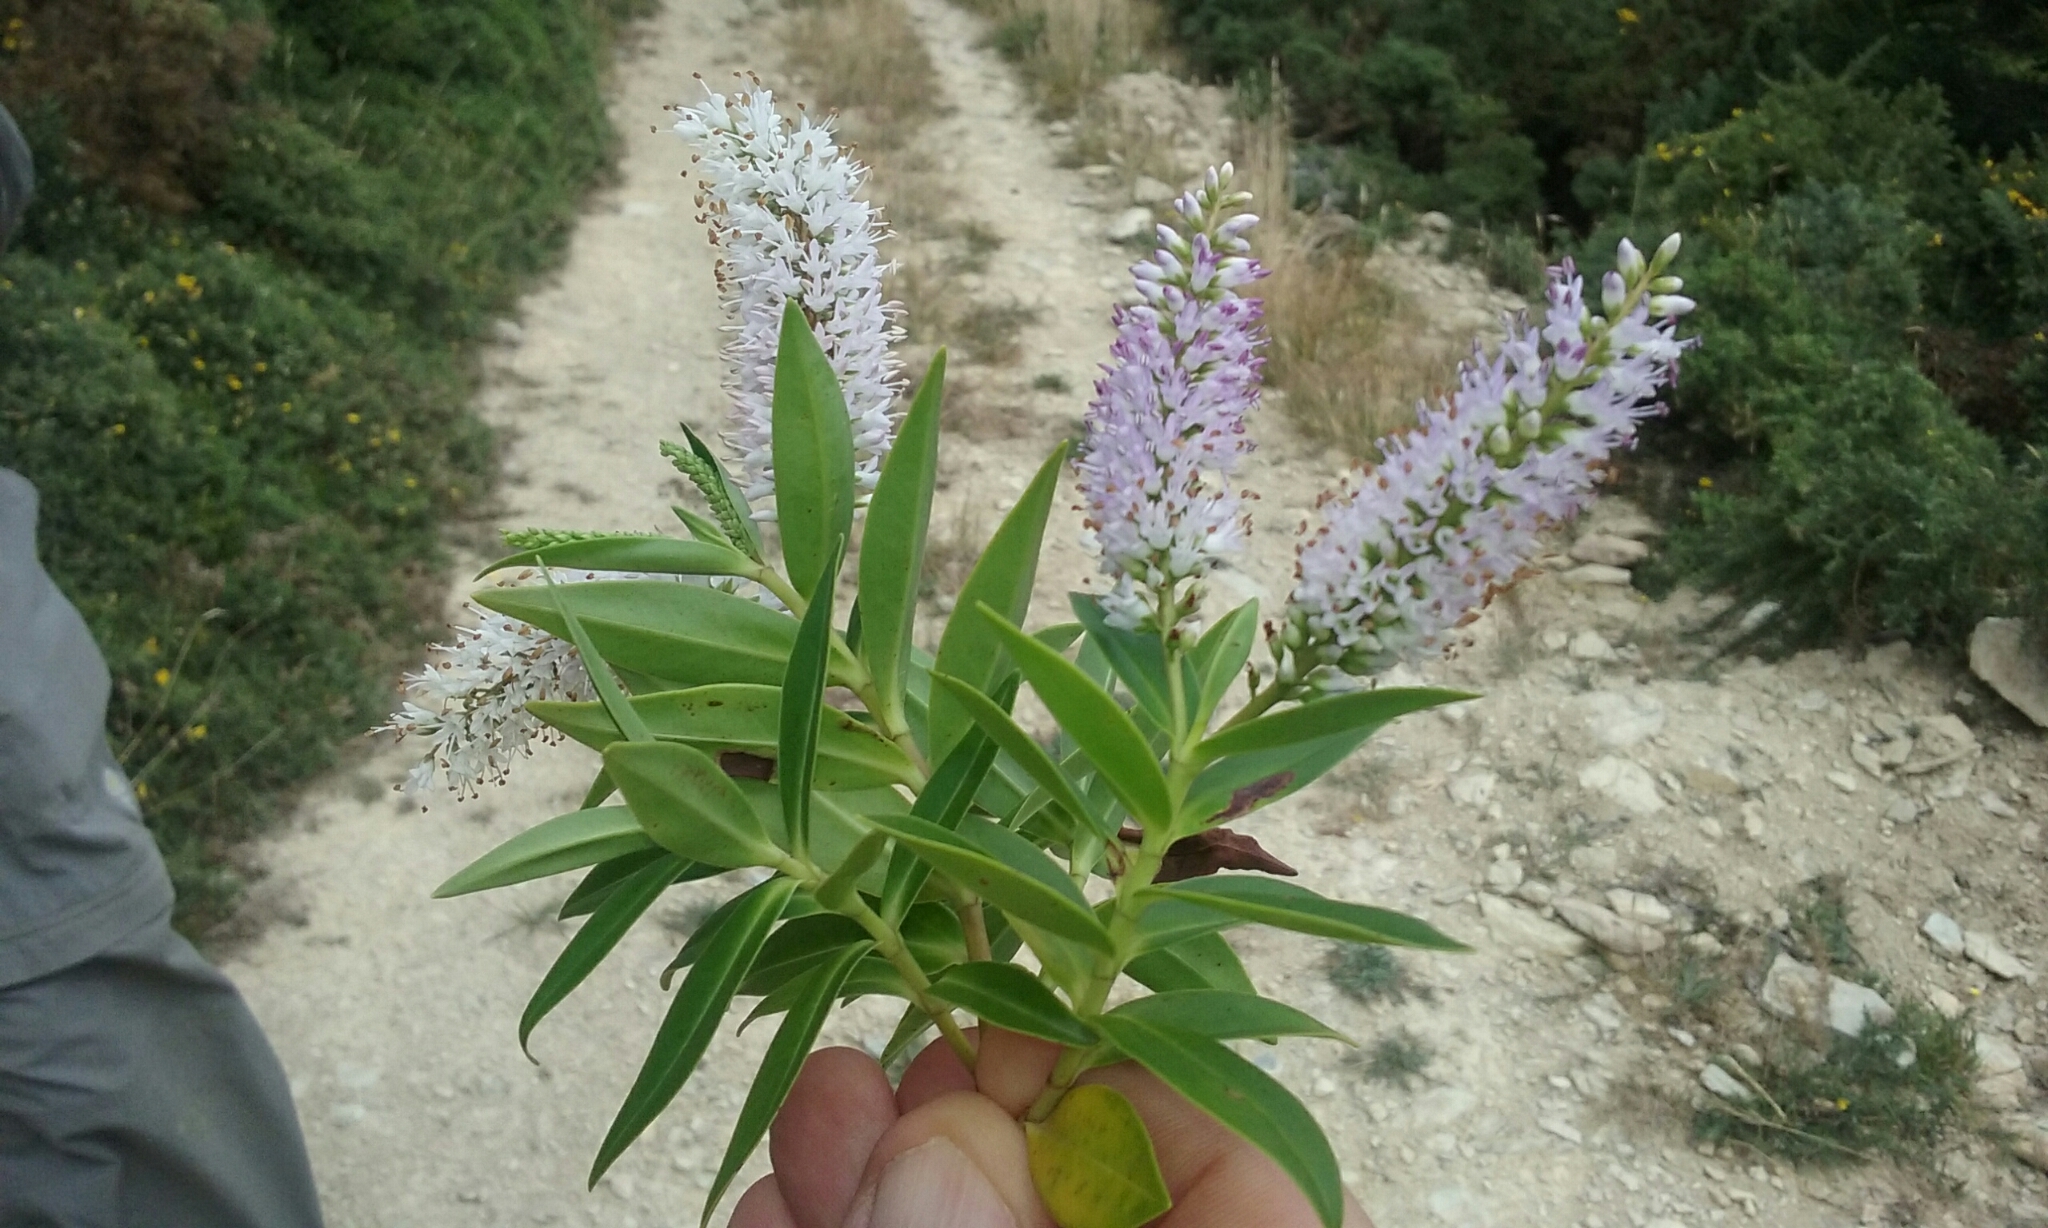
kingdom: Plantae
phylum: Tracheophyta
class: Magnoliopsida
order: Lamiales
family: Plantaginaceae
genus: Veronica
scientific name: Veronica stricta
